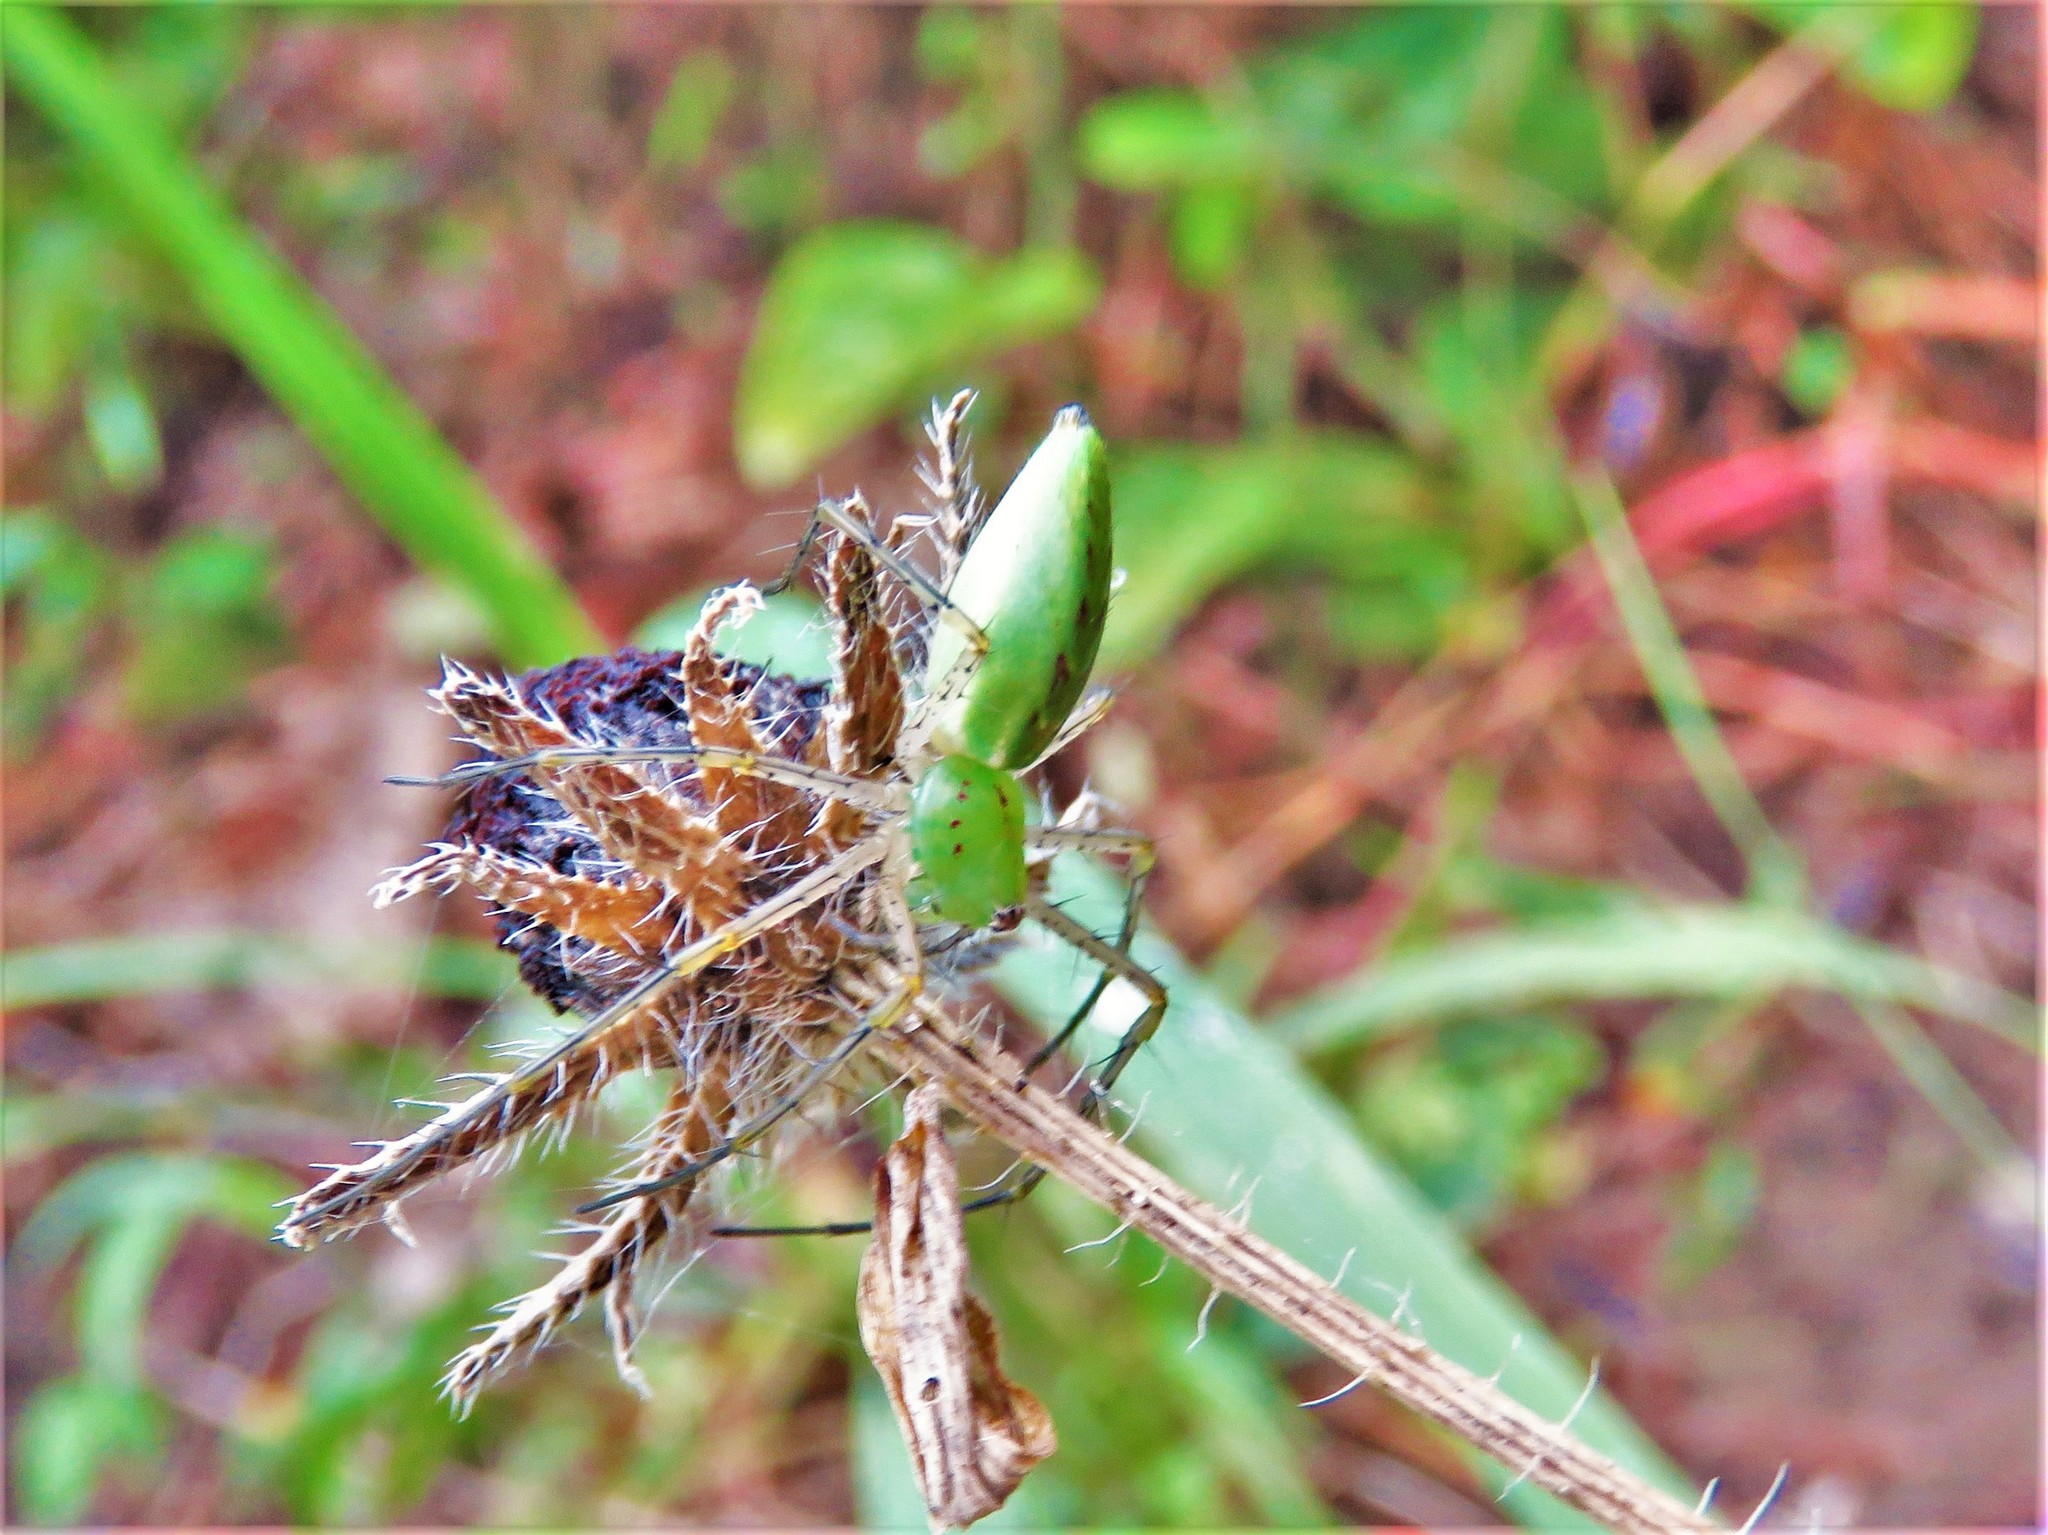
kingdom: Animalia
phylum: Arthropoda
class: Arachnida
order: Araneae
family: Oxyopidae
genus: Peucetia
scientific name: Peucetia viridans
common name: Lynx spiders
